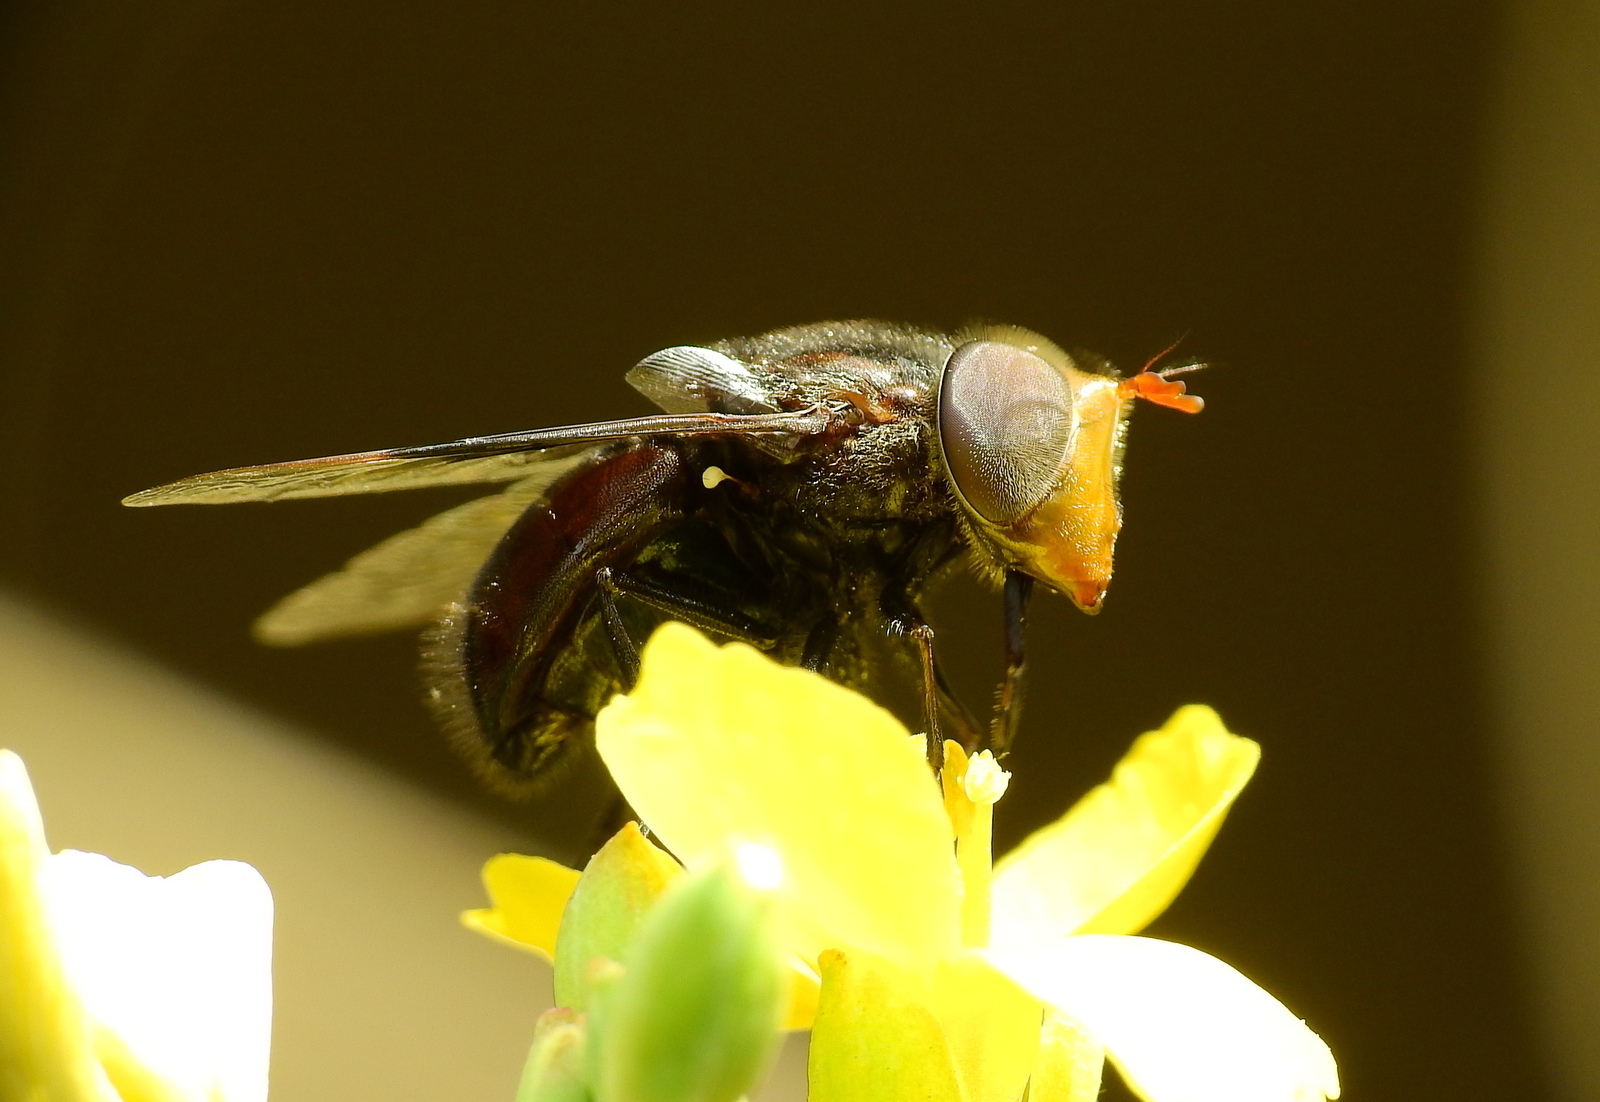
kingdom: Animalia
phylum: Arthropoda
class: Insecta
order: Diptera
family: Syrphidae
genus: Copestylum
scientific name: Copestylum spinigerum
